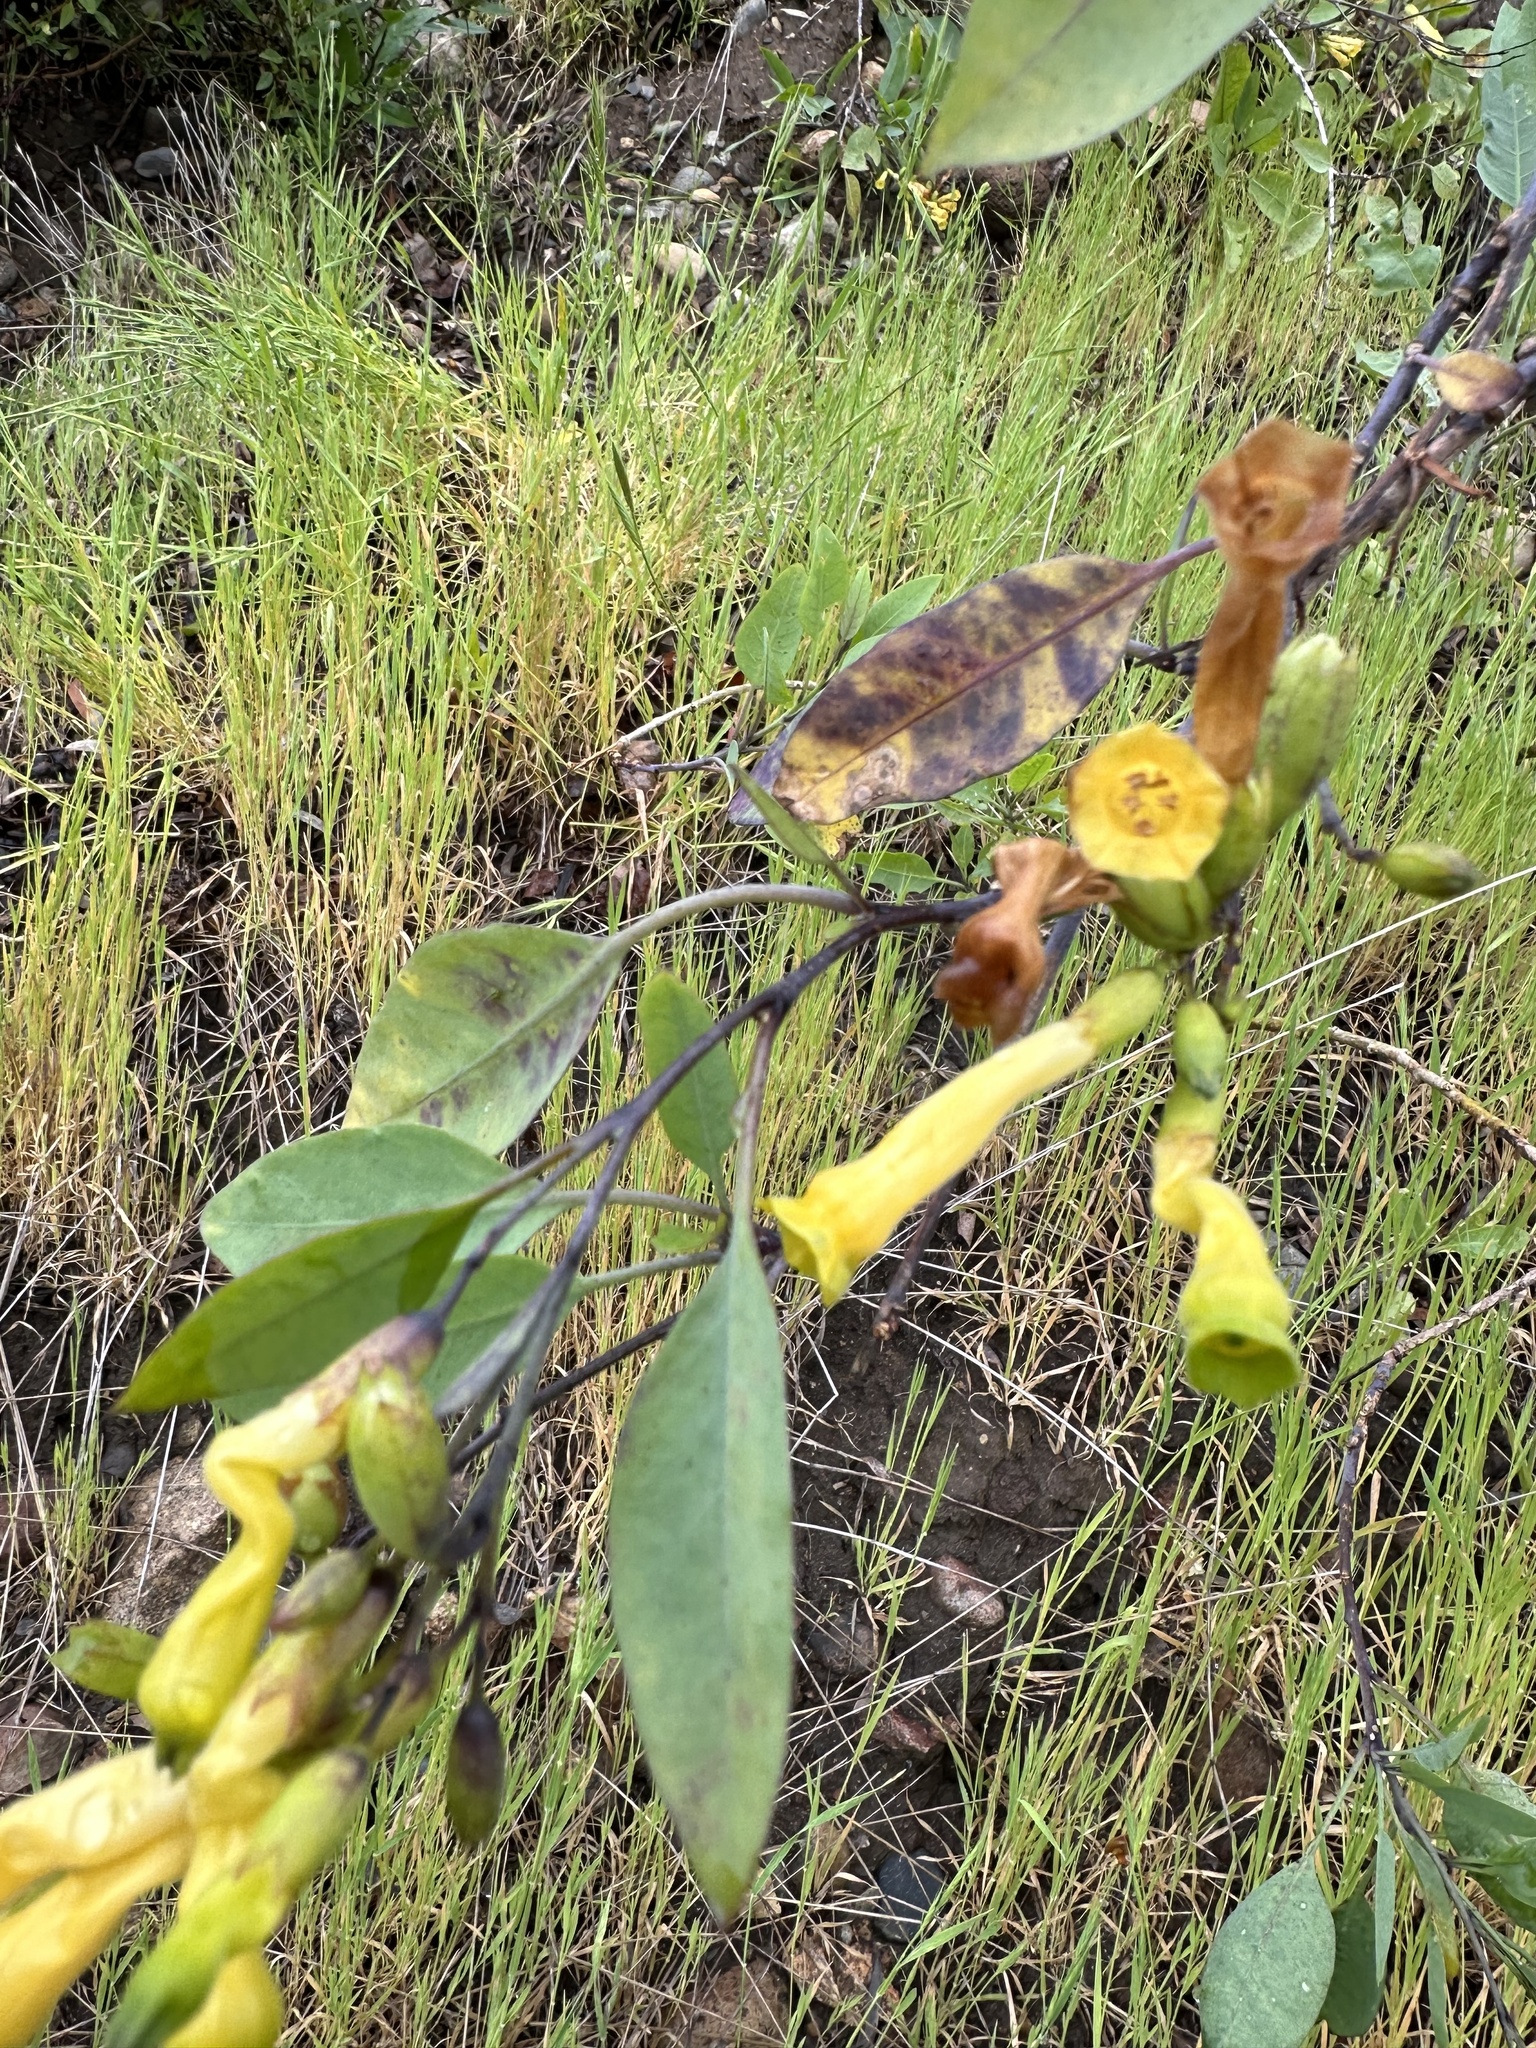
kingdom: Plantae
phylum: Tracheophyta
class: Magnoliopsida
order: Solanales
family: Solanaceae
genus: Nicotiana
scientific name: Nicotiana glauca
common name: Tree tobacco
